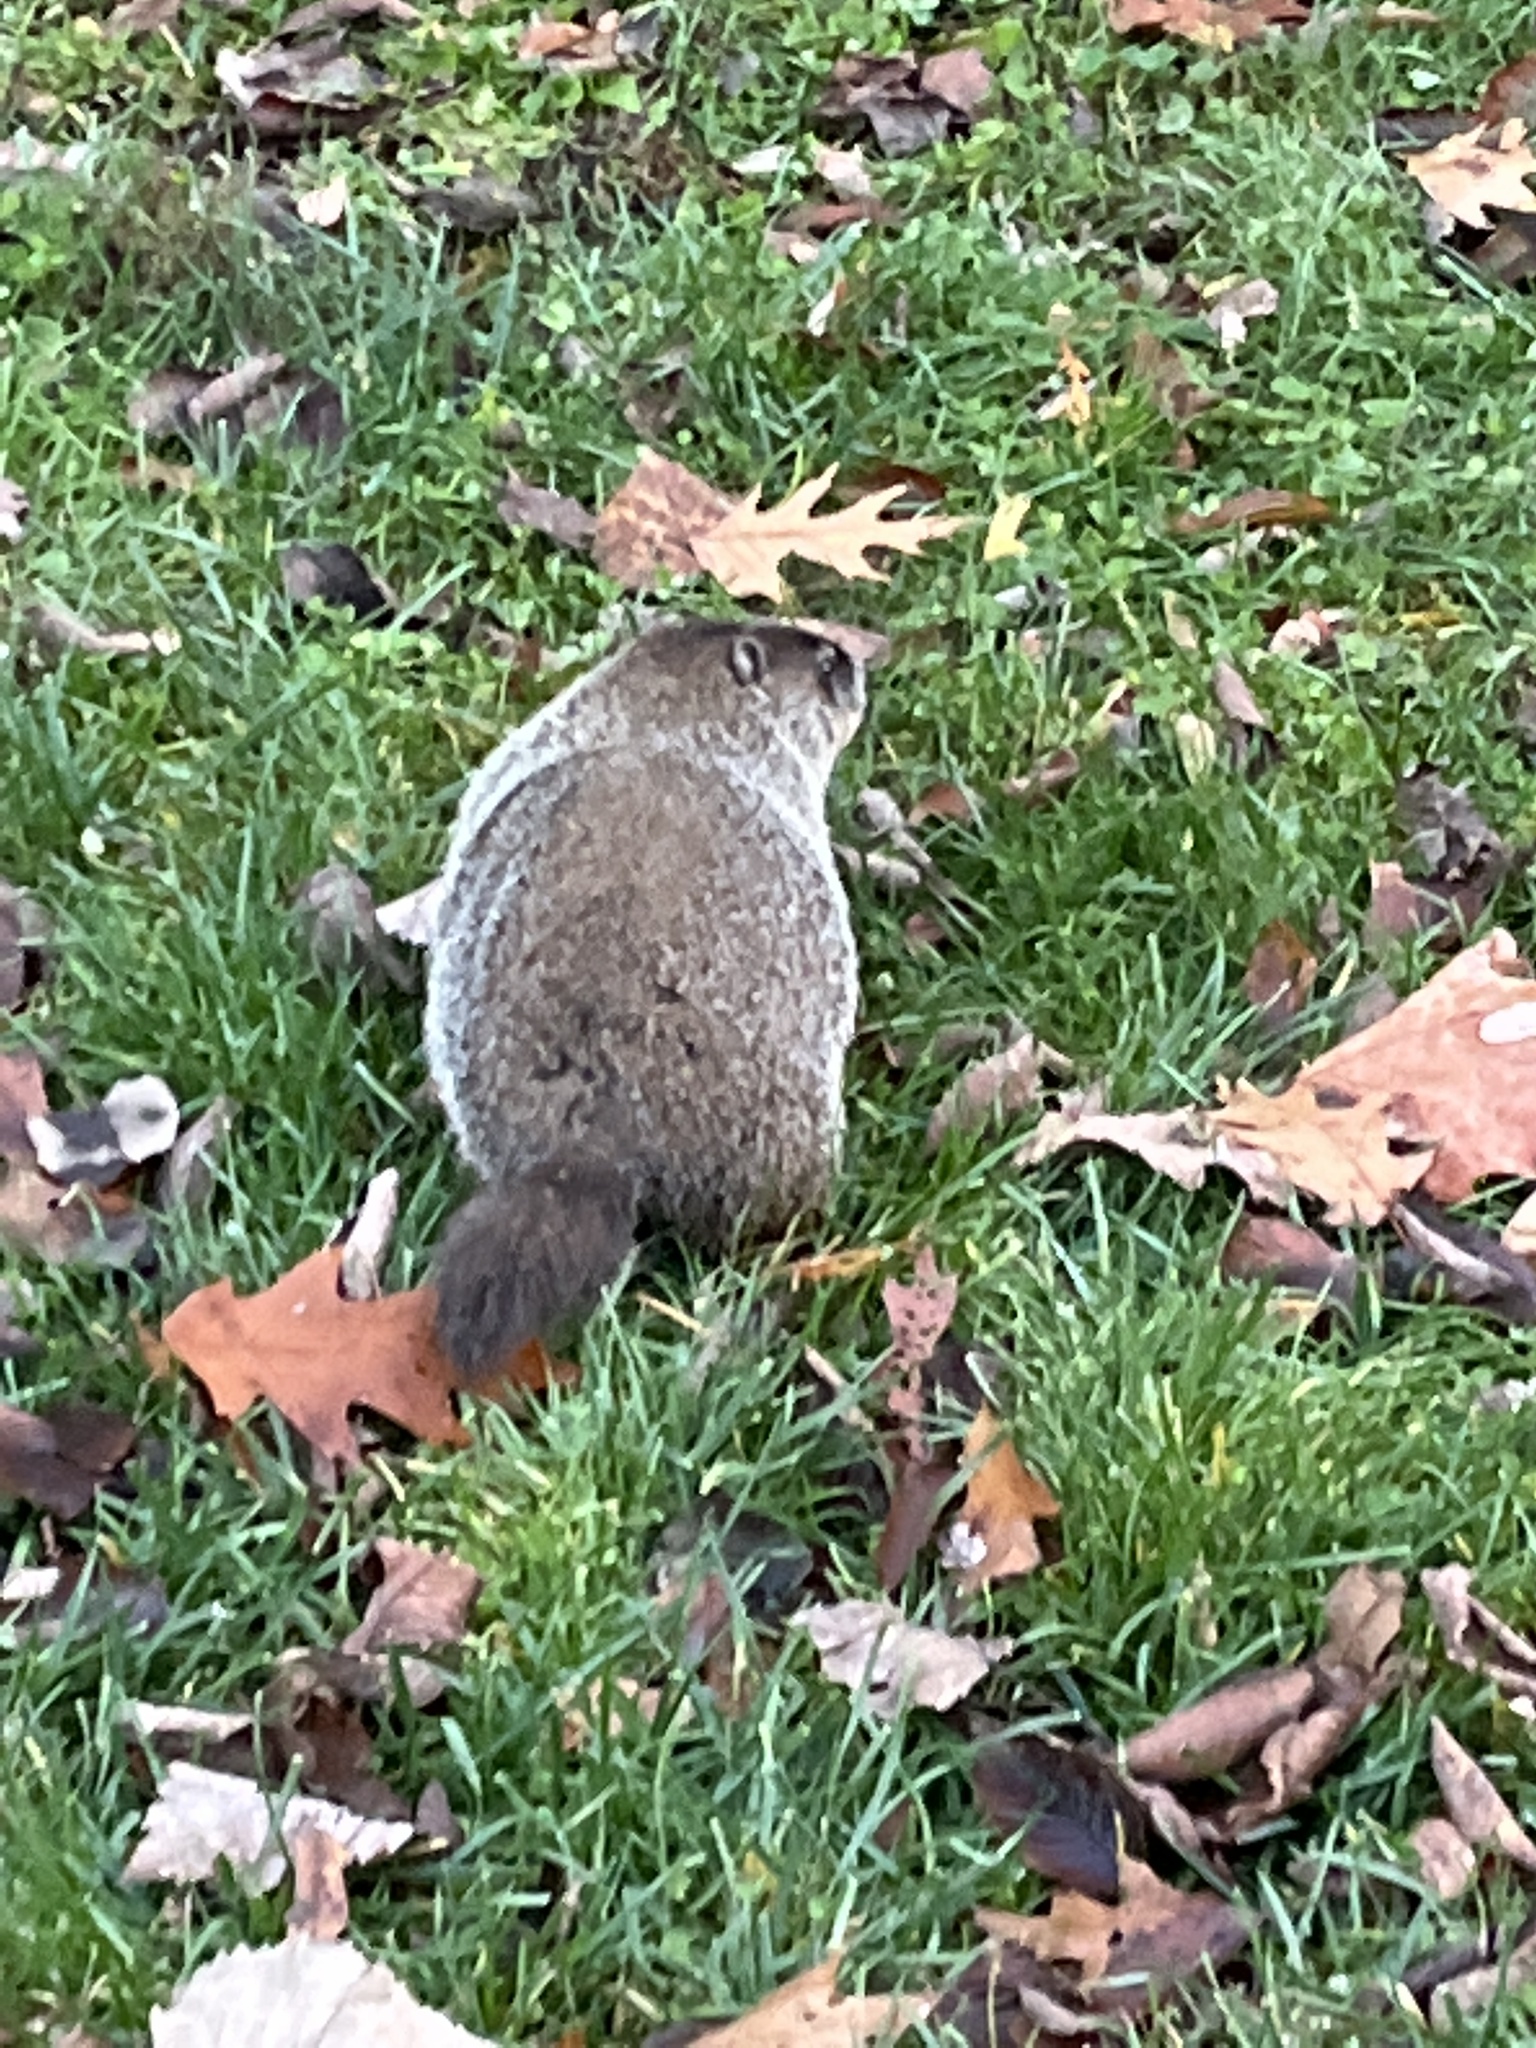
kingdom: Animalia
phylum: Chordata
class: Mammalia
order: Rodentia
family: Sciuridae
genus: Marmota
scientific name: Marmota monax
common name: Groundhog
